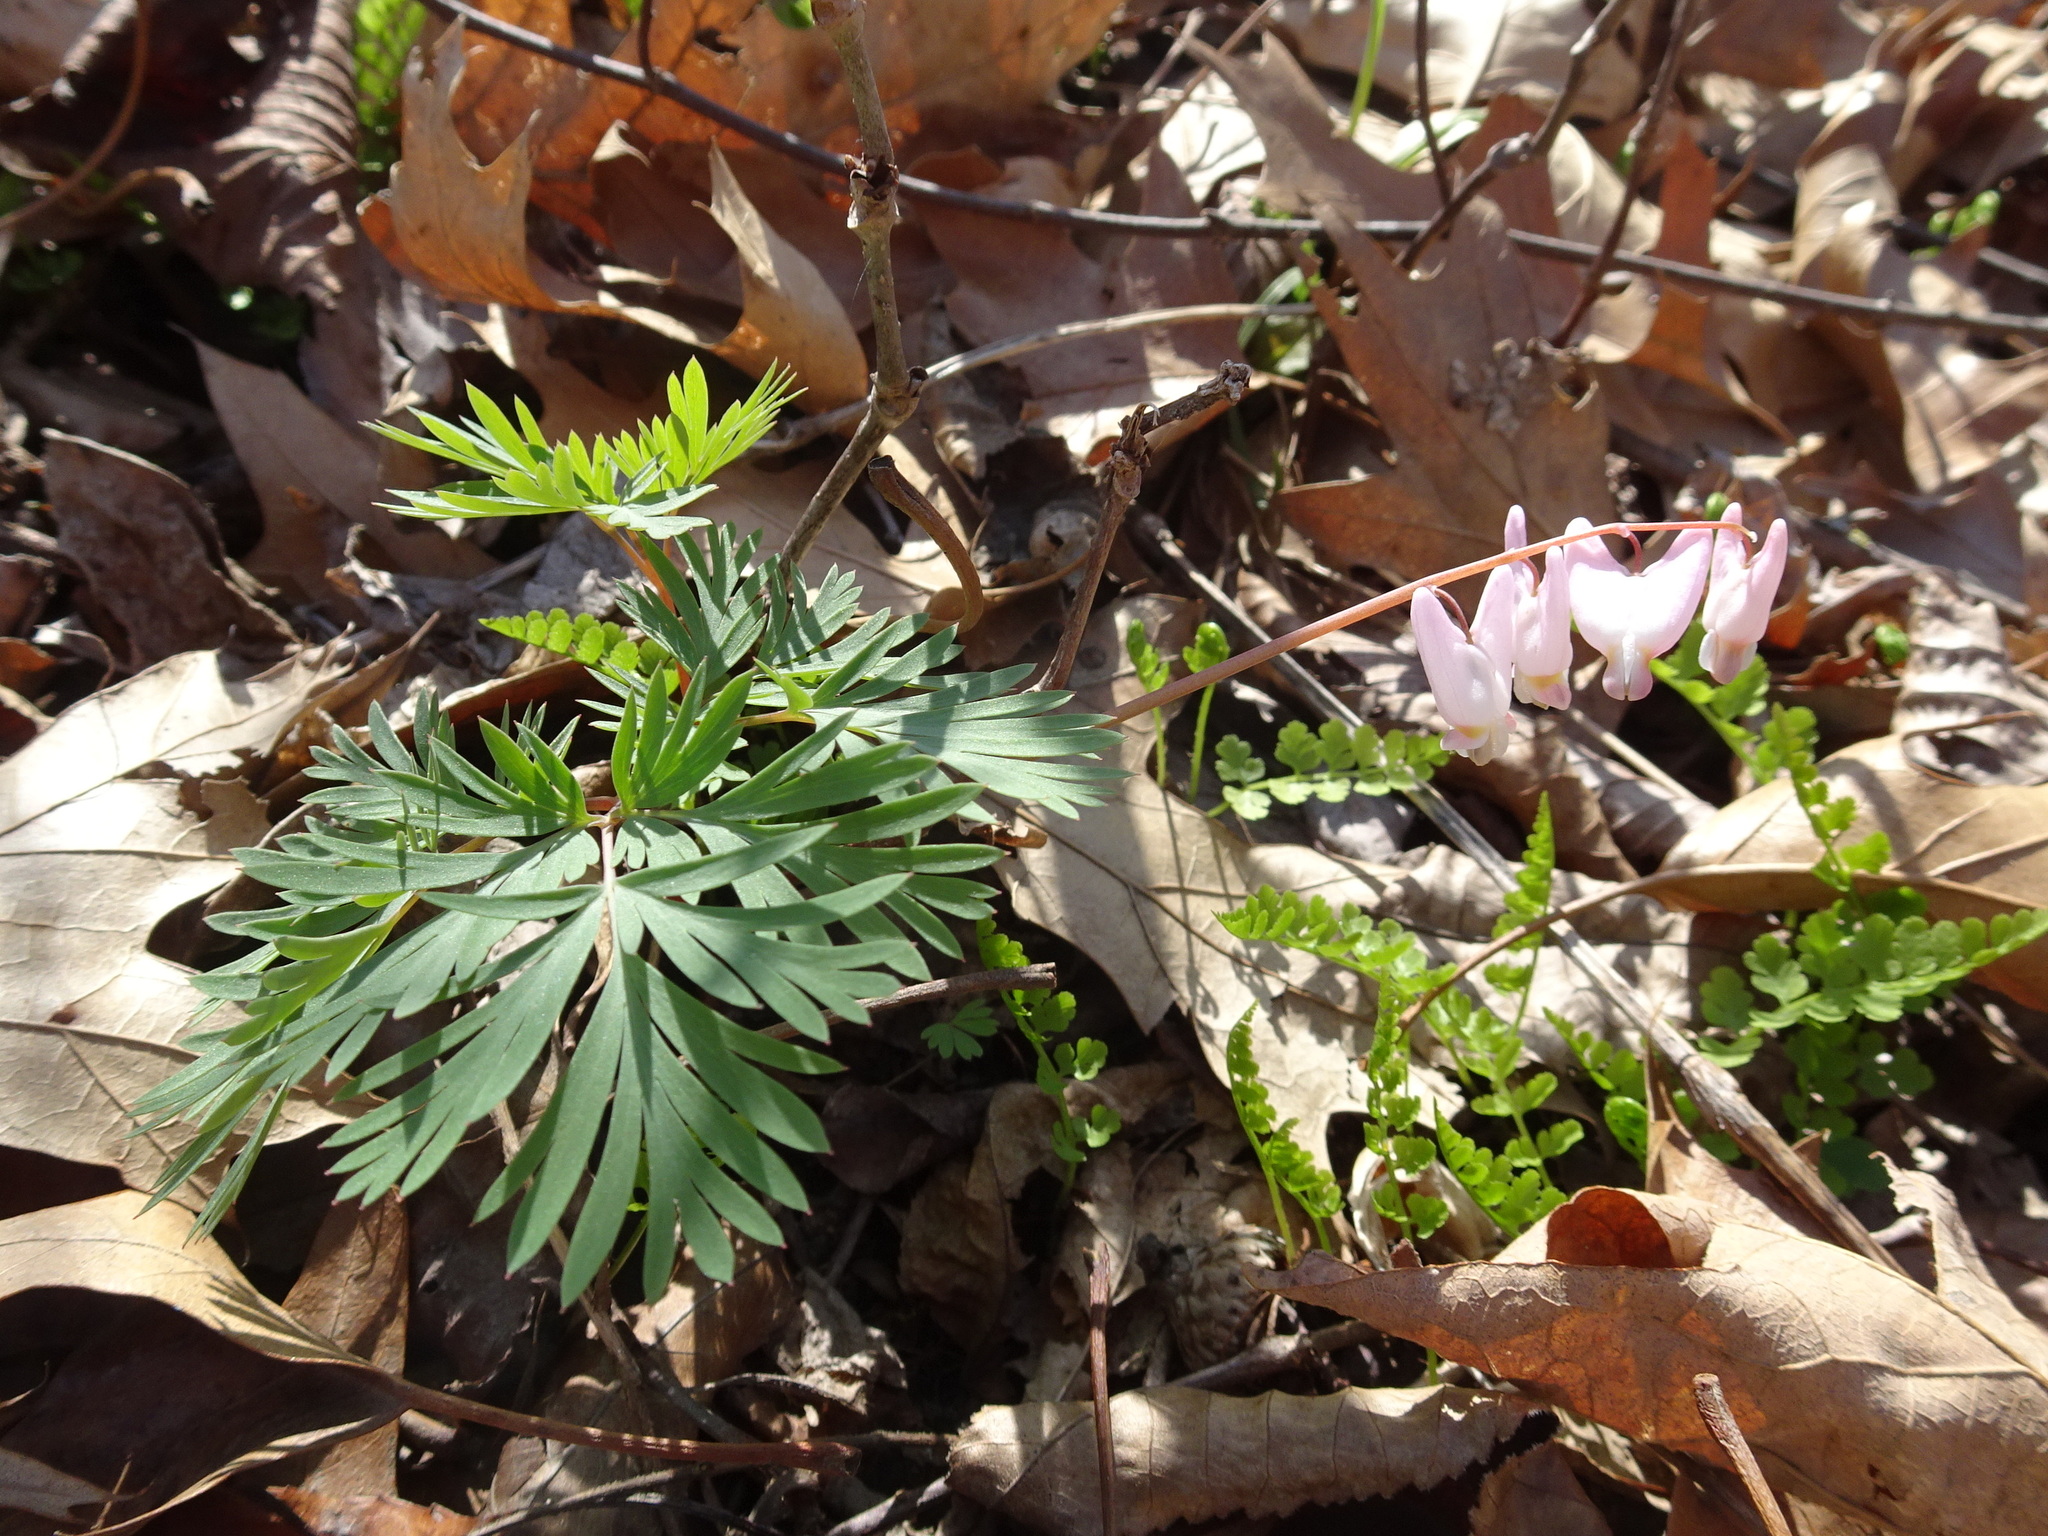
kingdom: Plantae
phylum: Tracheophyta
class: Magnoliopsida
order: Ranunculales
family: Papaveraceae
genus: Dicentra
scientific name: Dicentra cucullaria
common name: Dutchman's breeches
